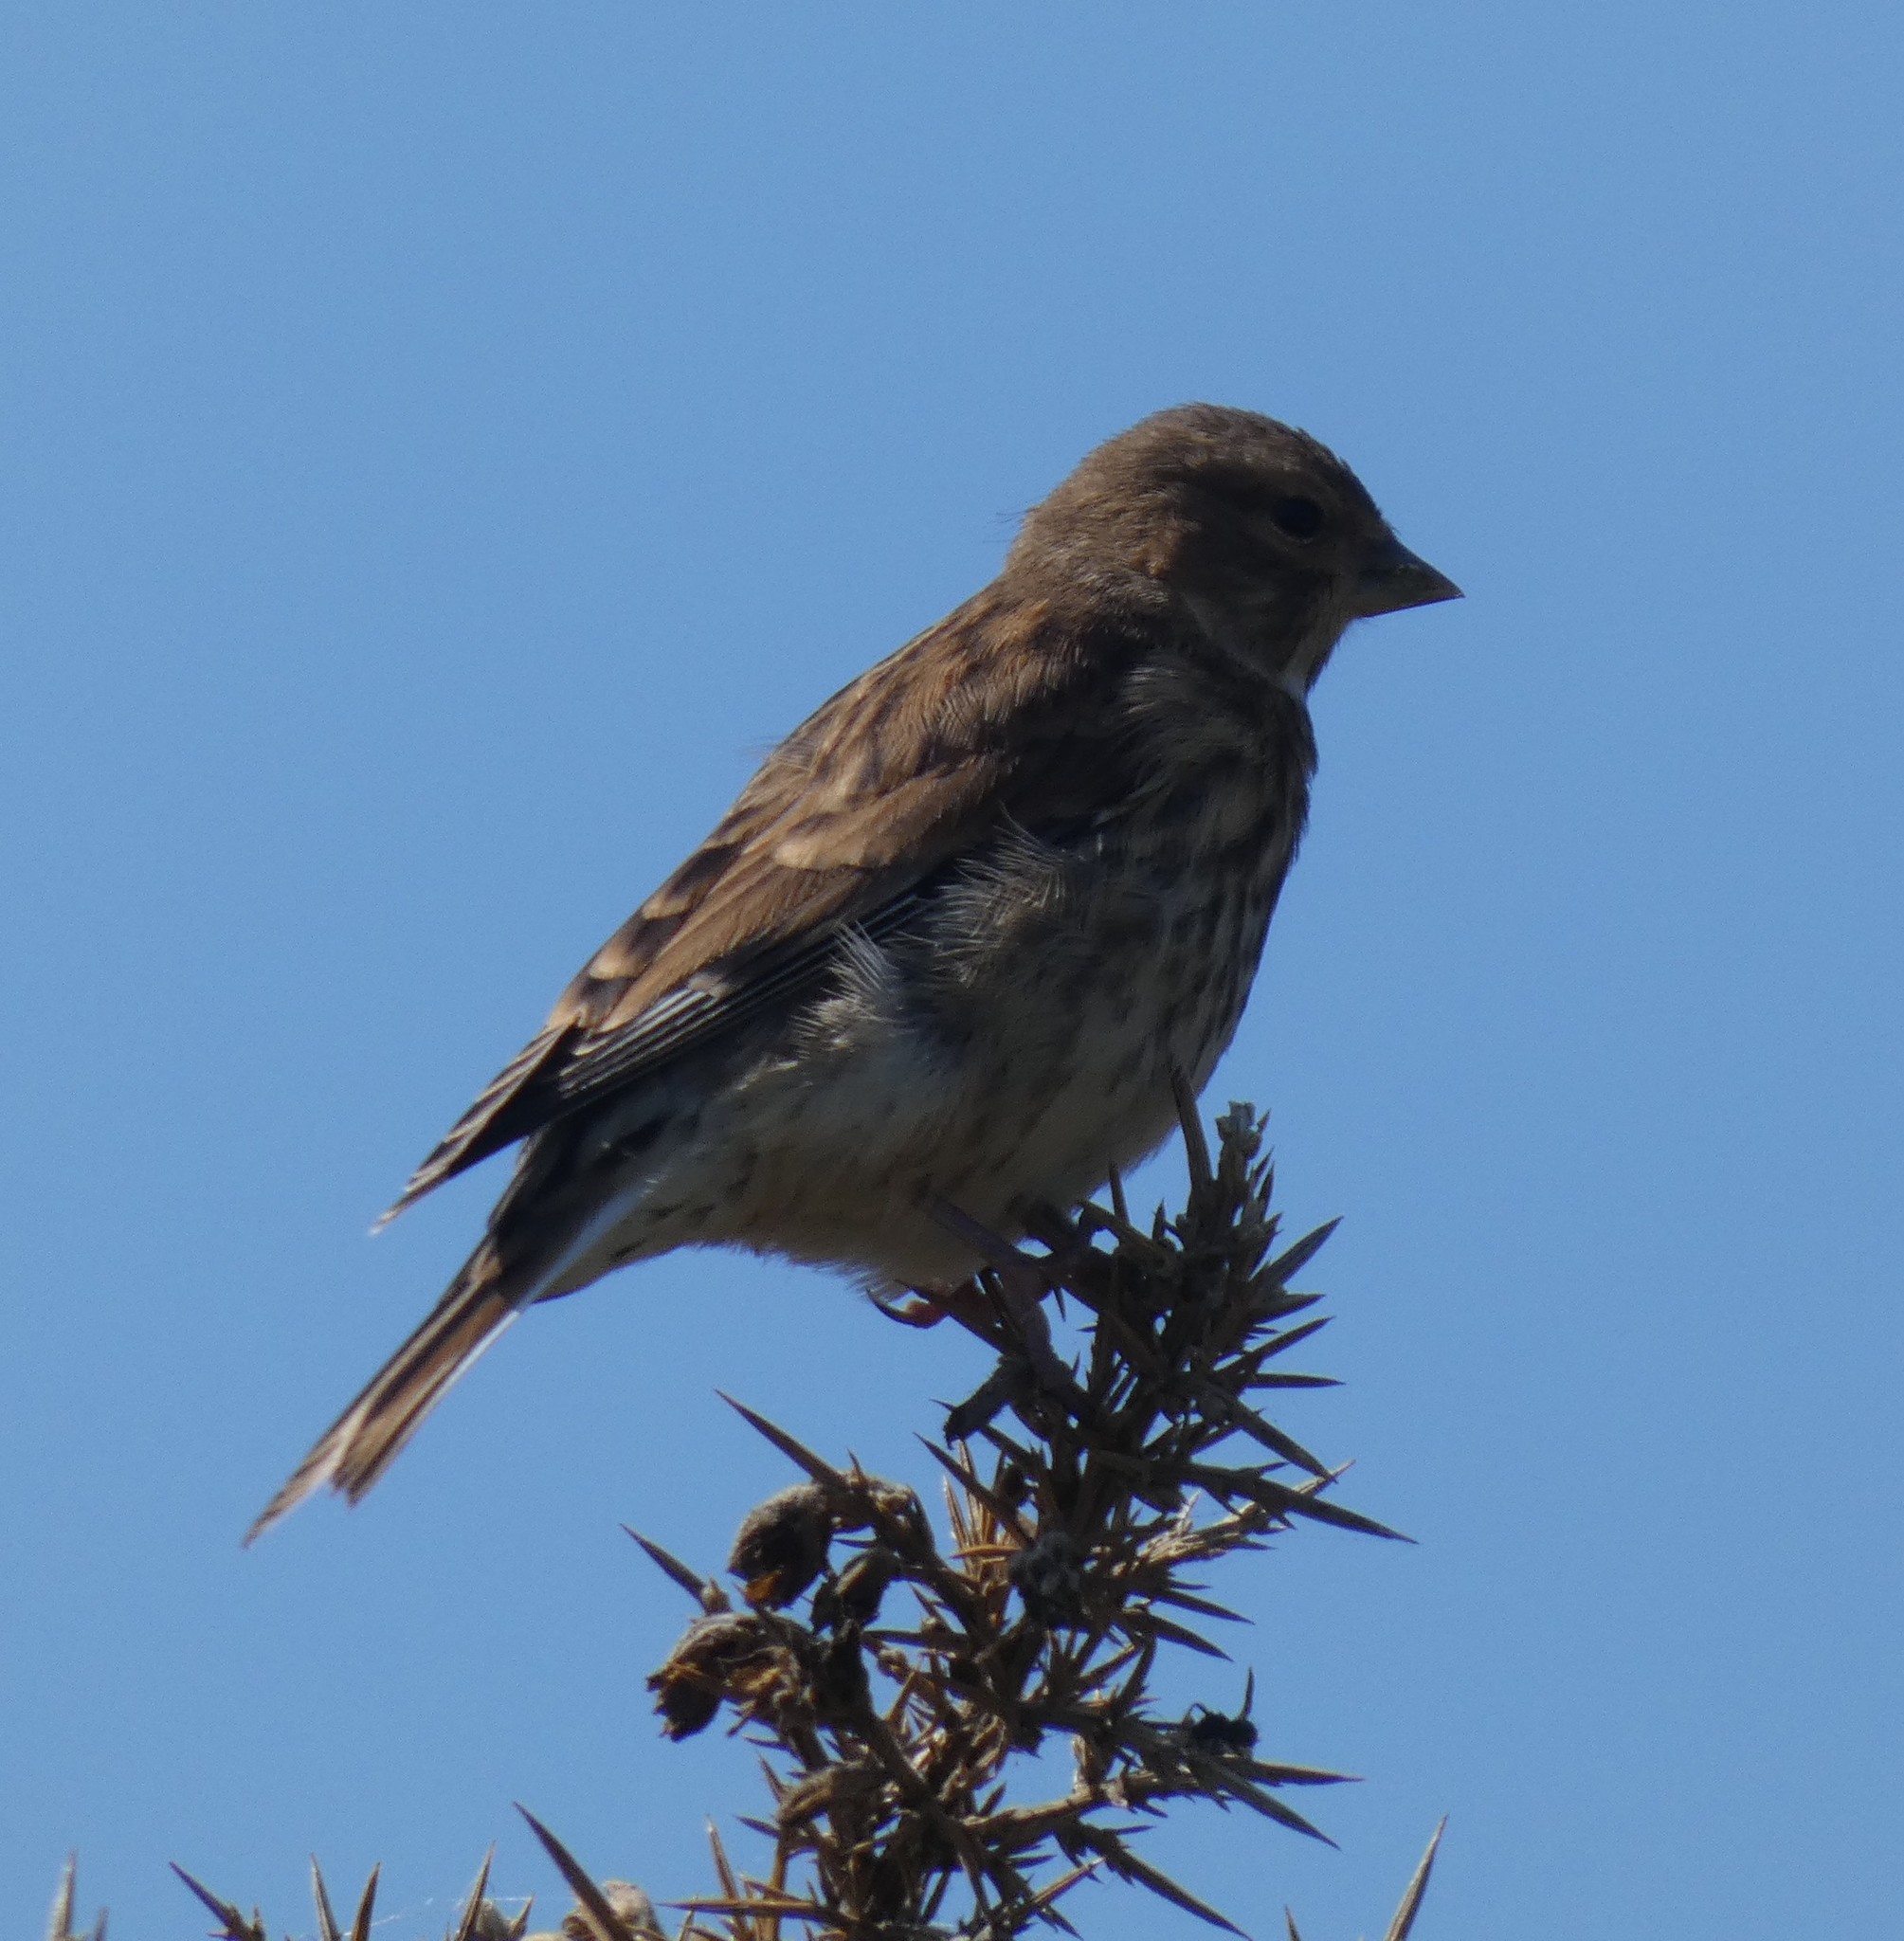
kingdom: Animalia
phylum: Chordata
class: Aves
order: Passeriformes
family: Fringillidae
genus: Linaria
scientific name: Linaria cannabina
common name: Common linnet
